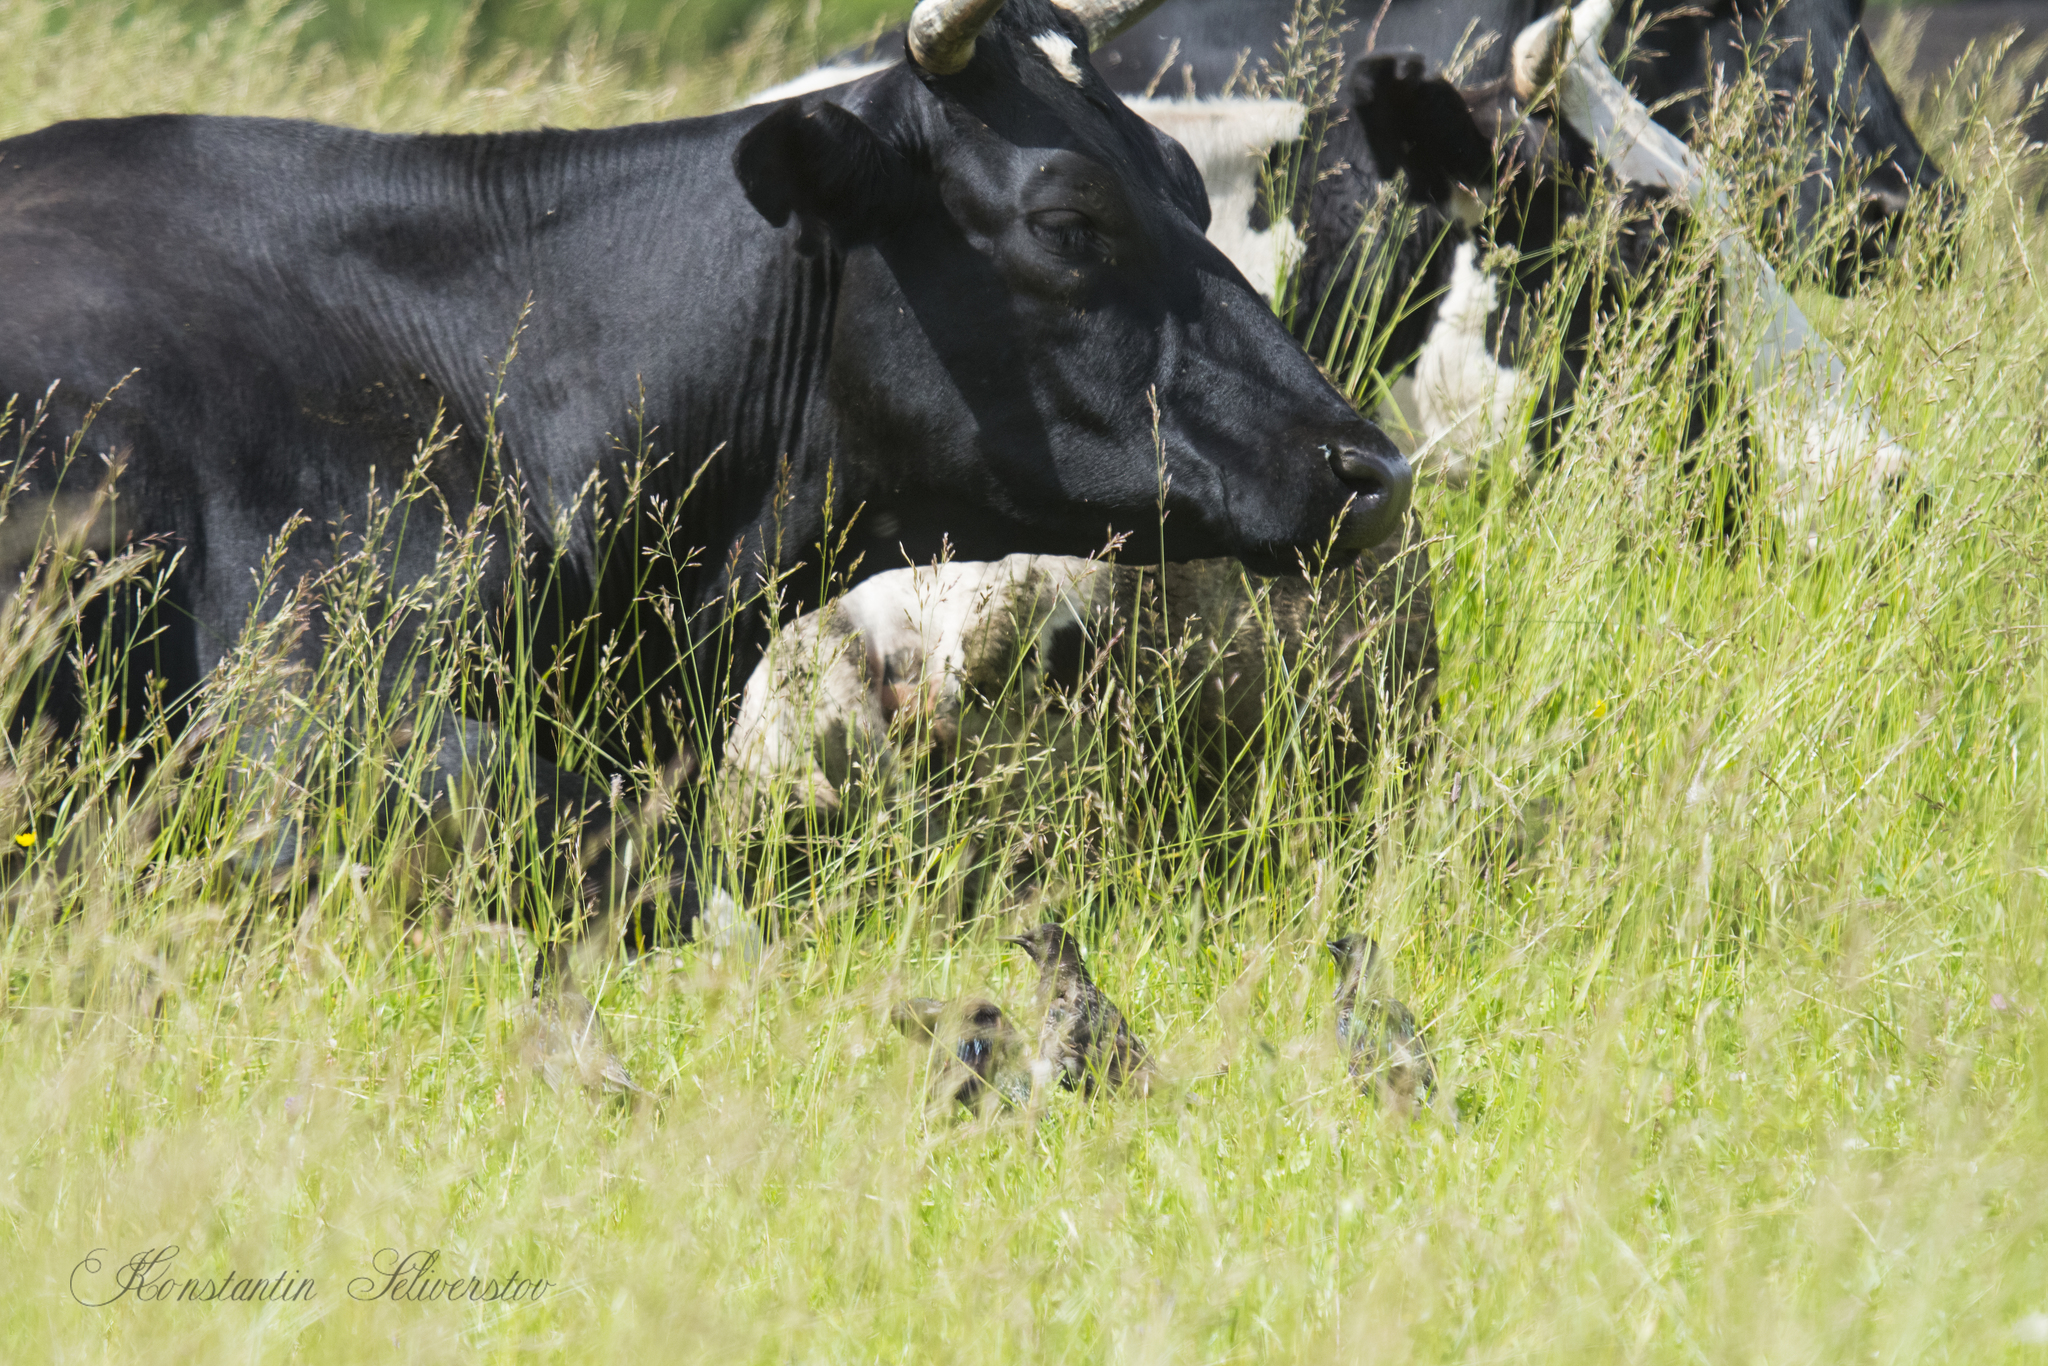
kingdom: Animalia
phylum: Chordata
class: Aves
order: Passeriformes
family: Sturnidae
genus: Sturnus
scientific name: Sturnus vulgaris
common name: Common starling
